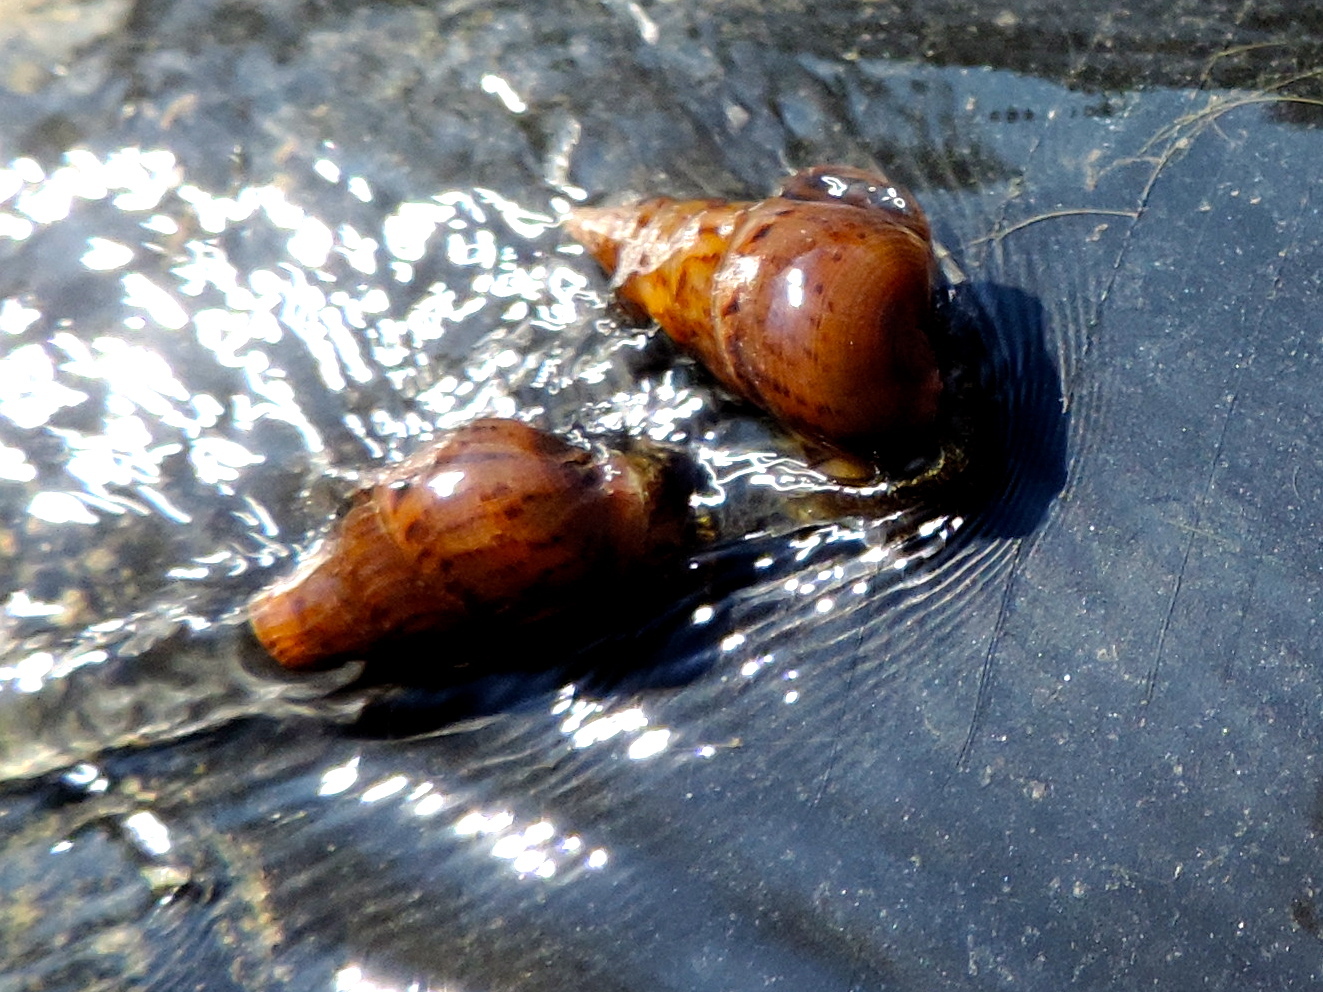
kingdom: Animalia
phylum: Mollusca
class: Gastropoda
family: Thiaridae
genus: Melanoides
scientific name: Melanoides tuberculata
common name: Red-rim melania
